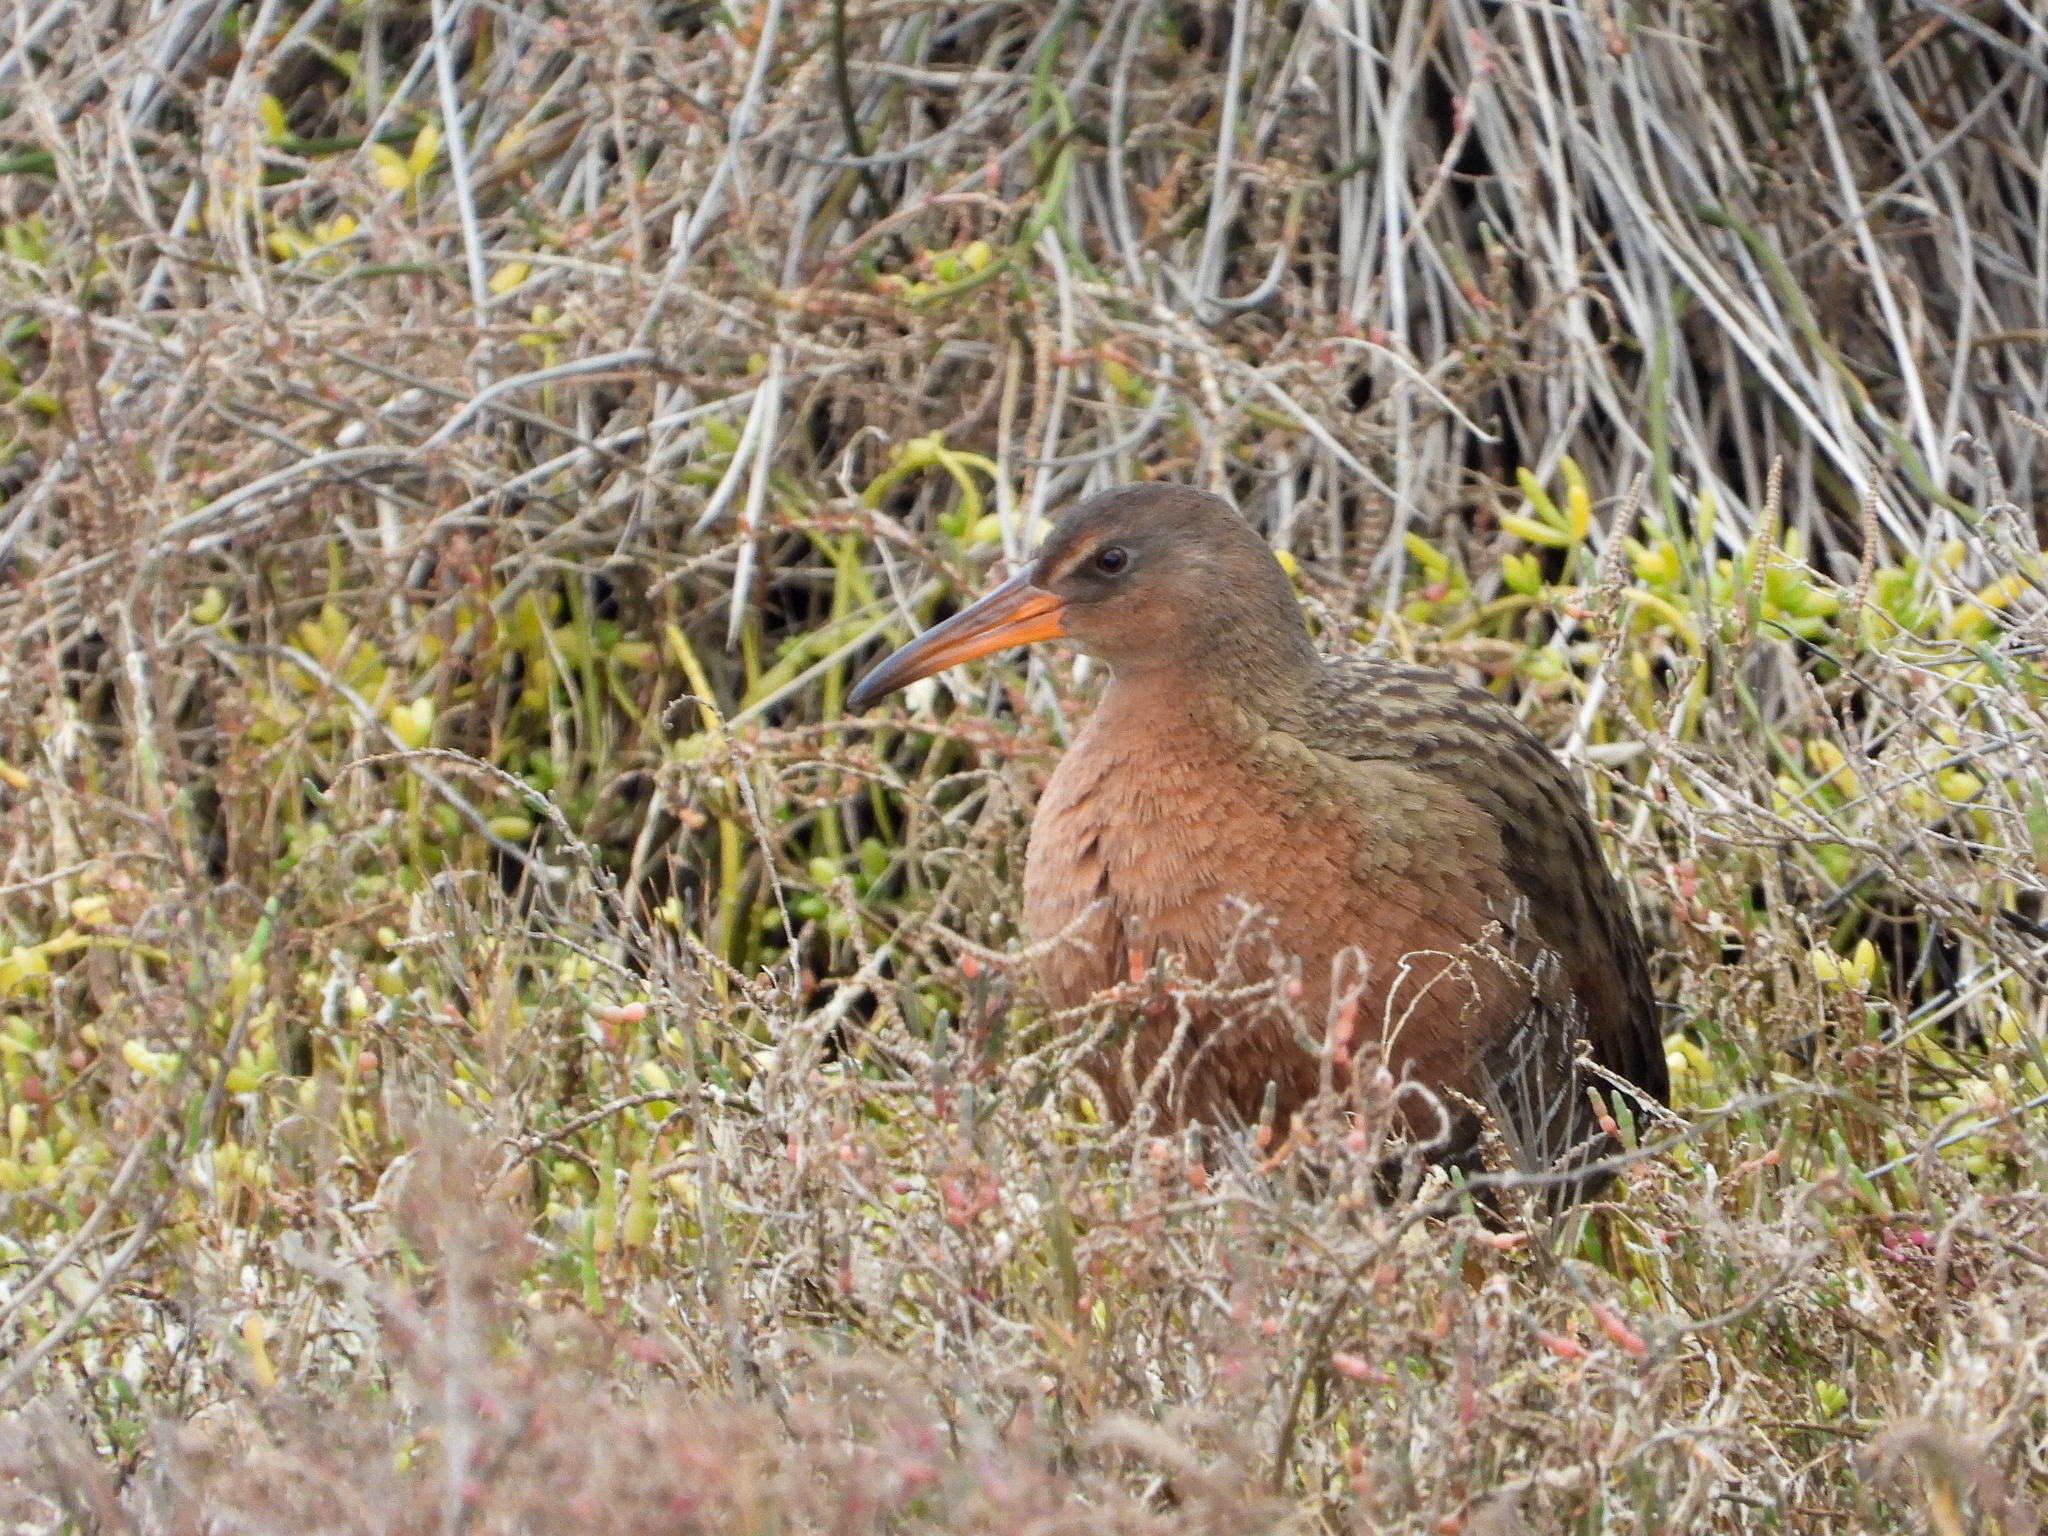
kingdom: Animalia
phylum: Chordata
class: Aves
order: Gruiformes
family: Rallidae
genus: Rallus
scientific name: Rallus obsoletus
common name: Ridgway's rail
